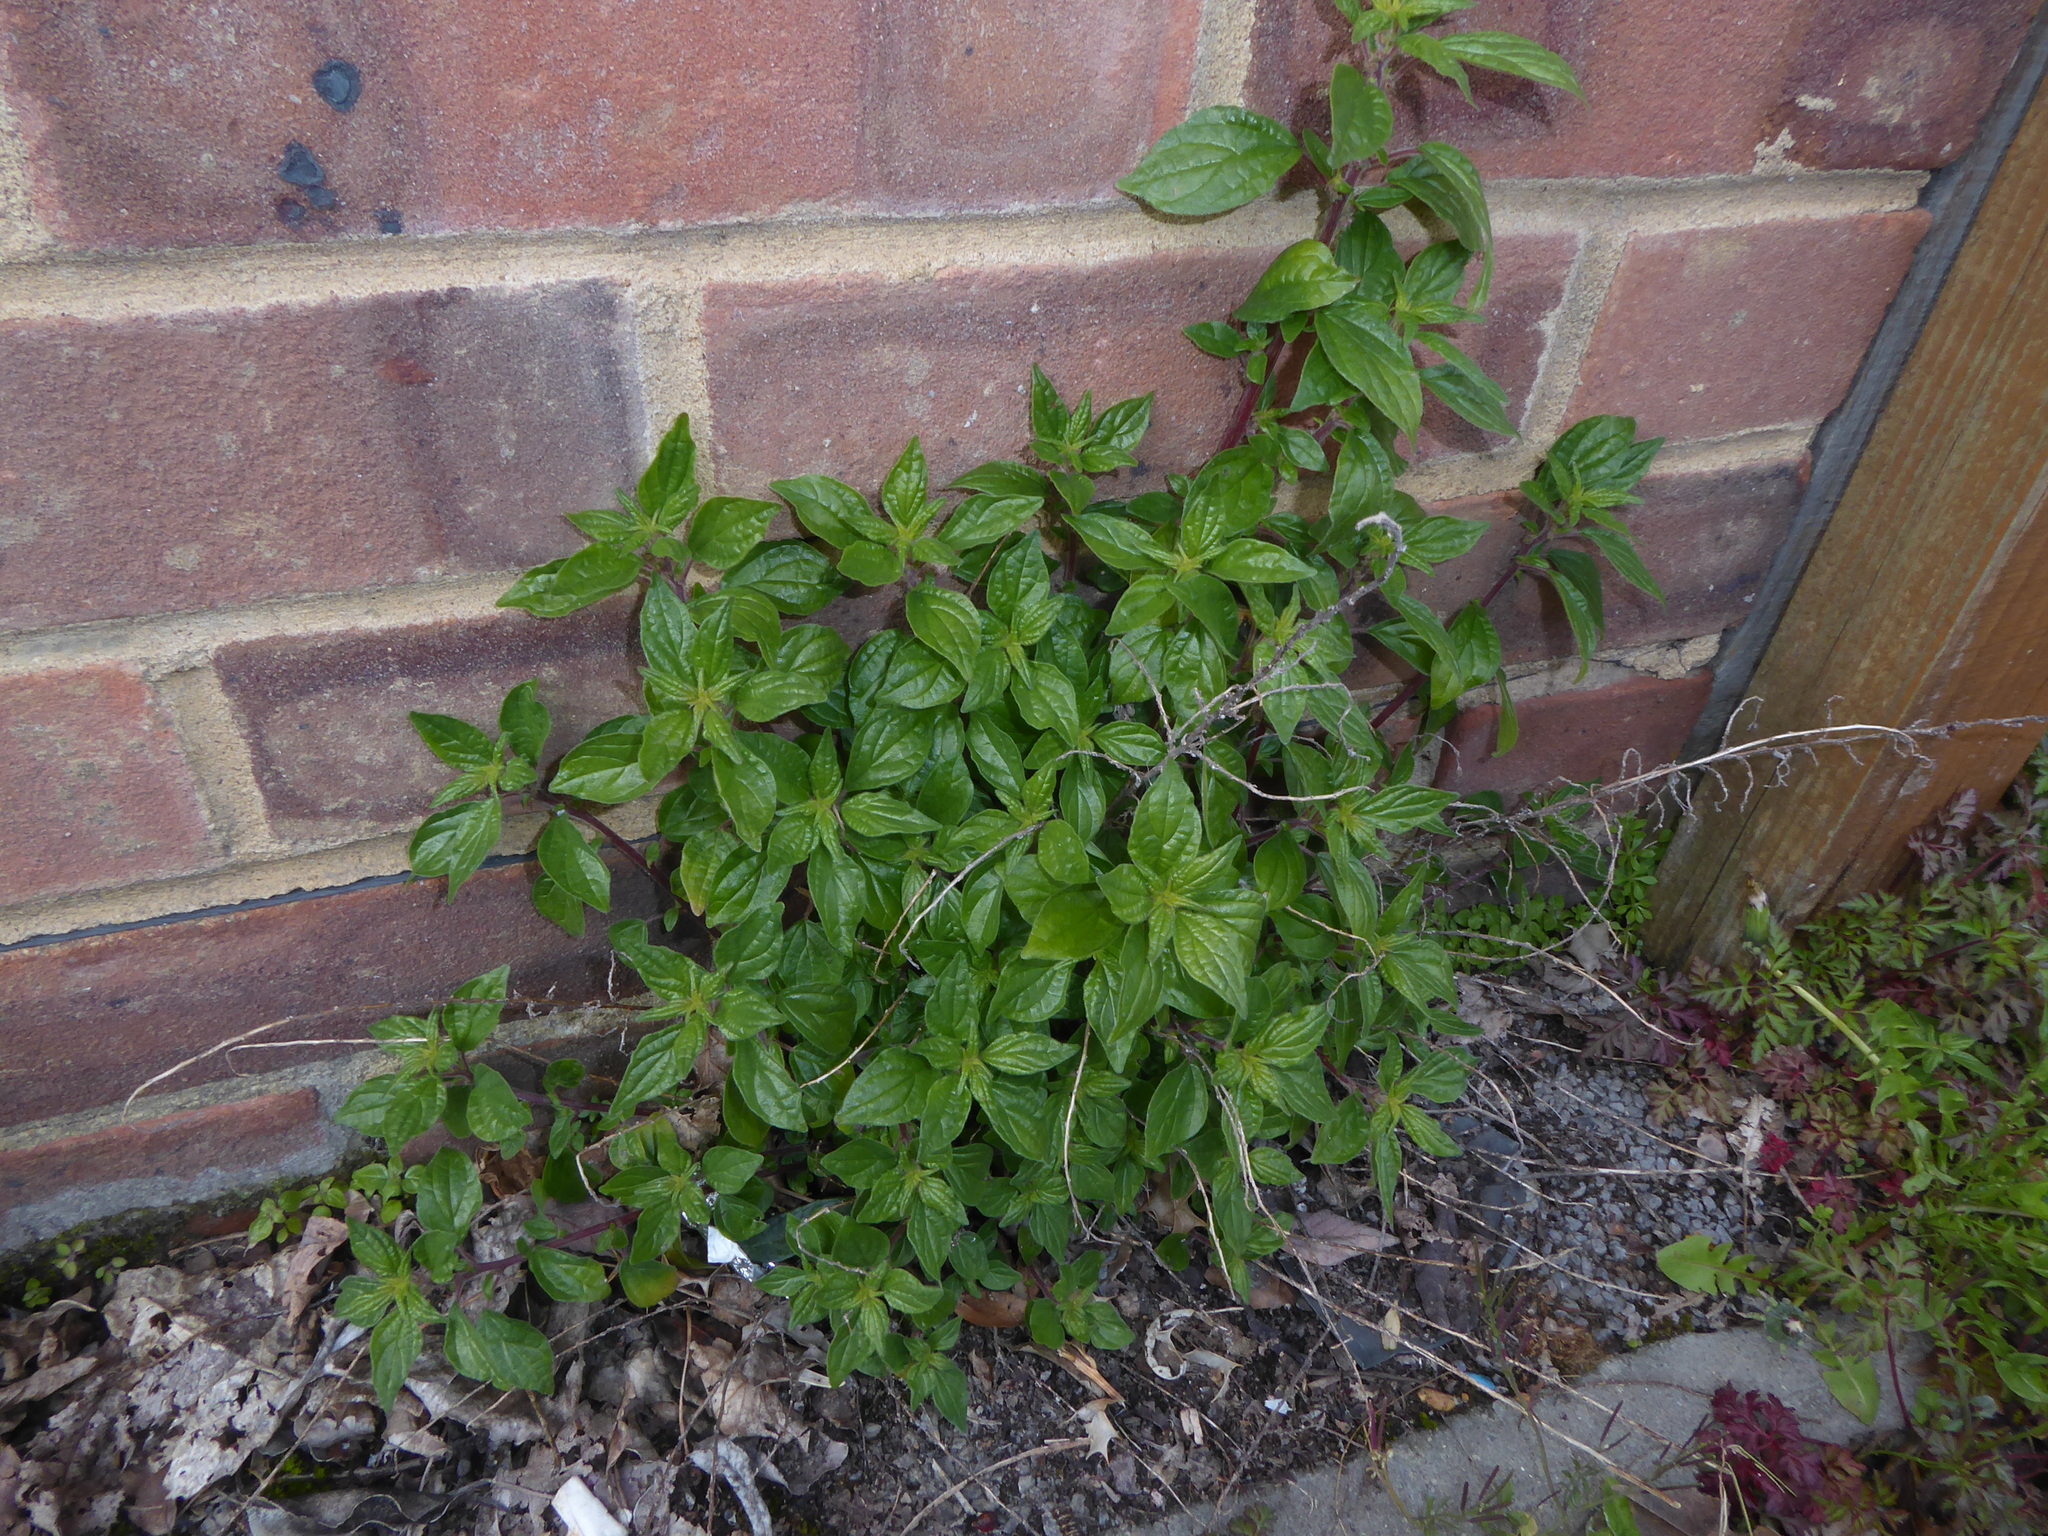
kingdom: Plantae
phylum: Tracheophyta
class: Magnoliopsida
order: Rosales
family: Urticaceae
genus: Parietaria
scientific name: Parietaria judaica
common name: Pellitory-of-the-wall
